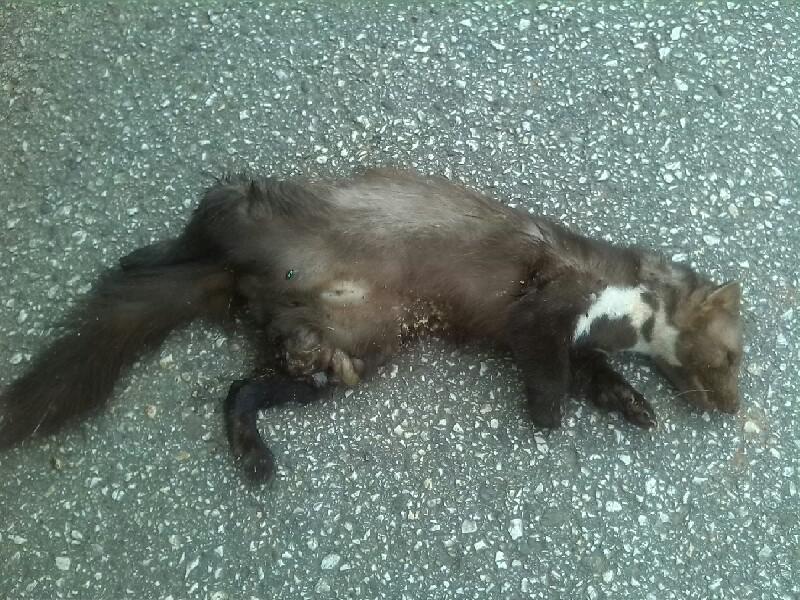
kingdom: Animalia
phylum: Chordata
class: Mammalia
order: Carnivora
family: Mustelidae
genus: Martes
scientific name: Martes foina
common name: Beech marten
